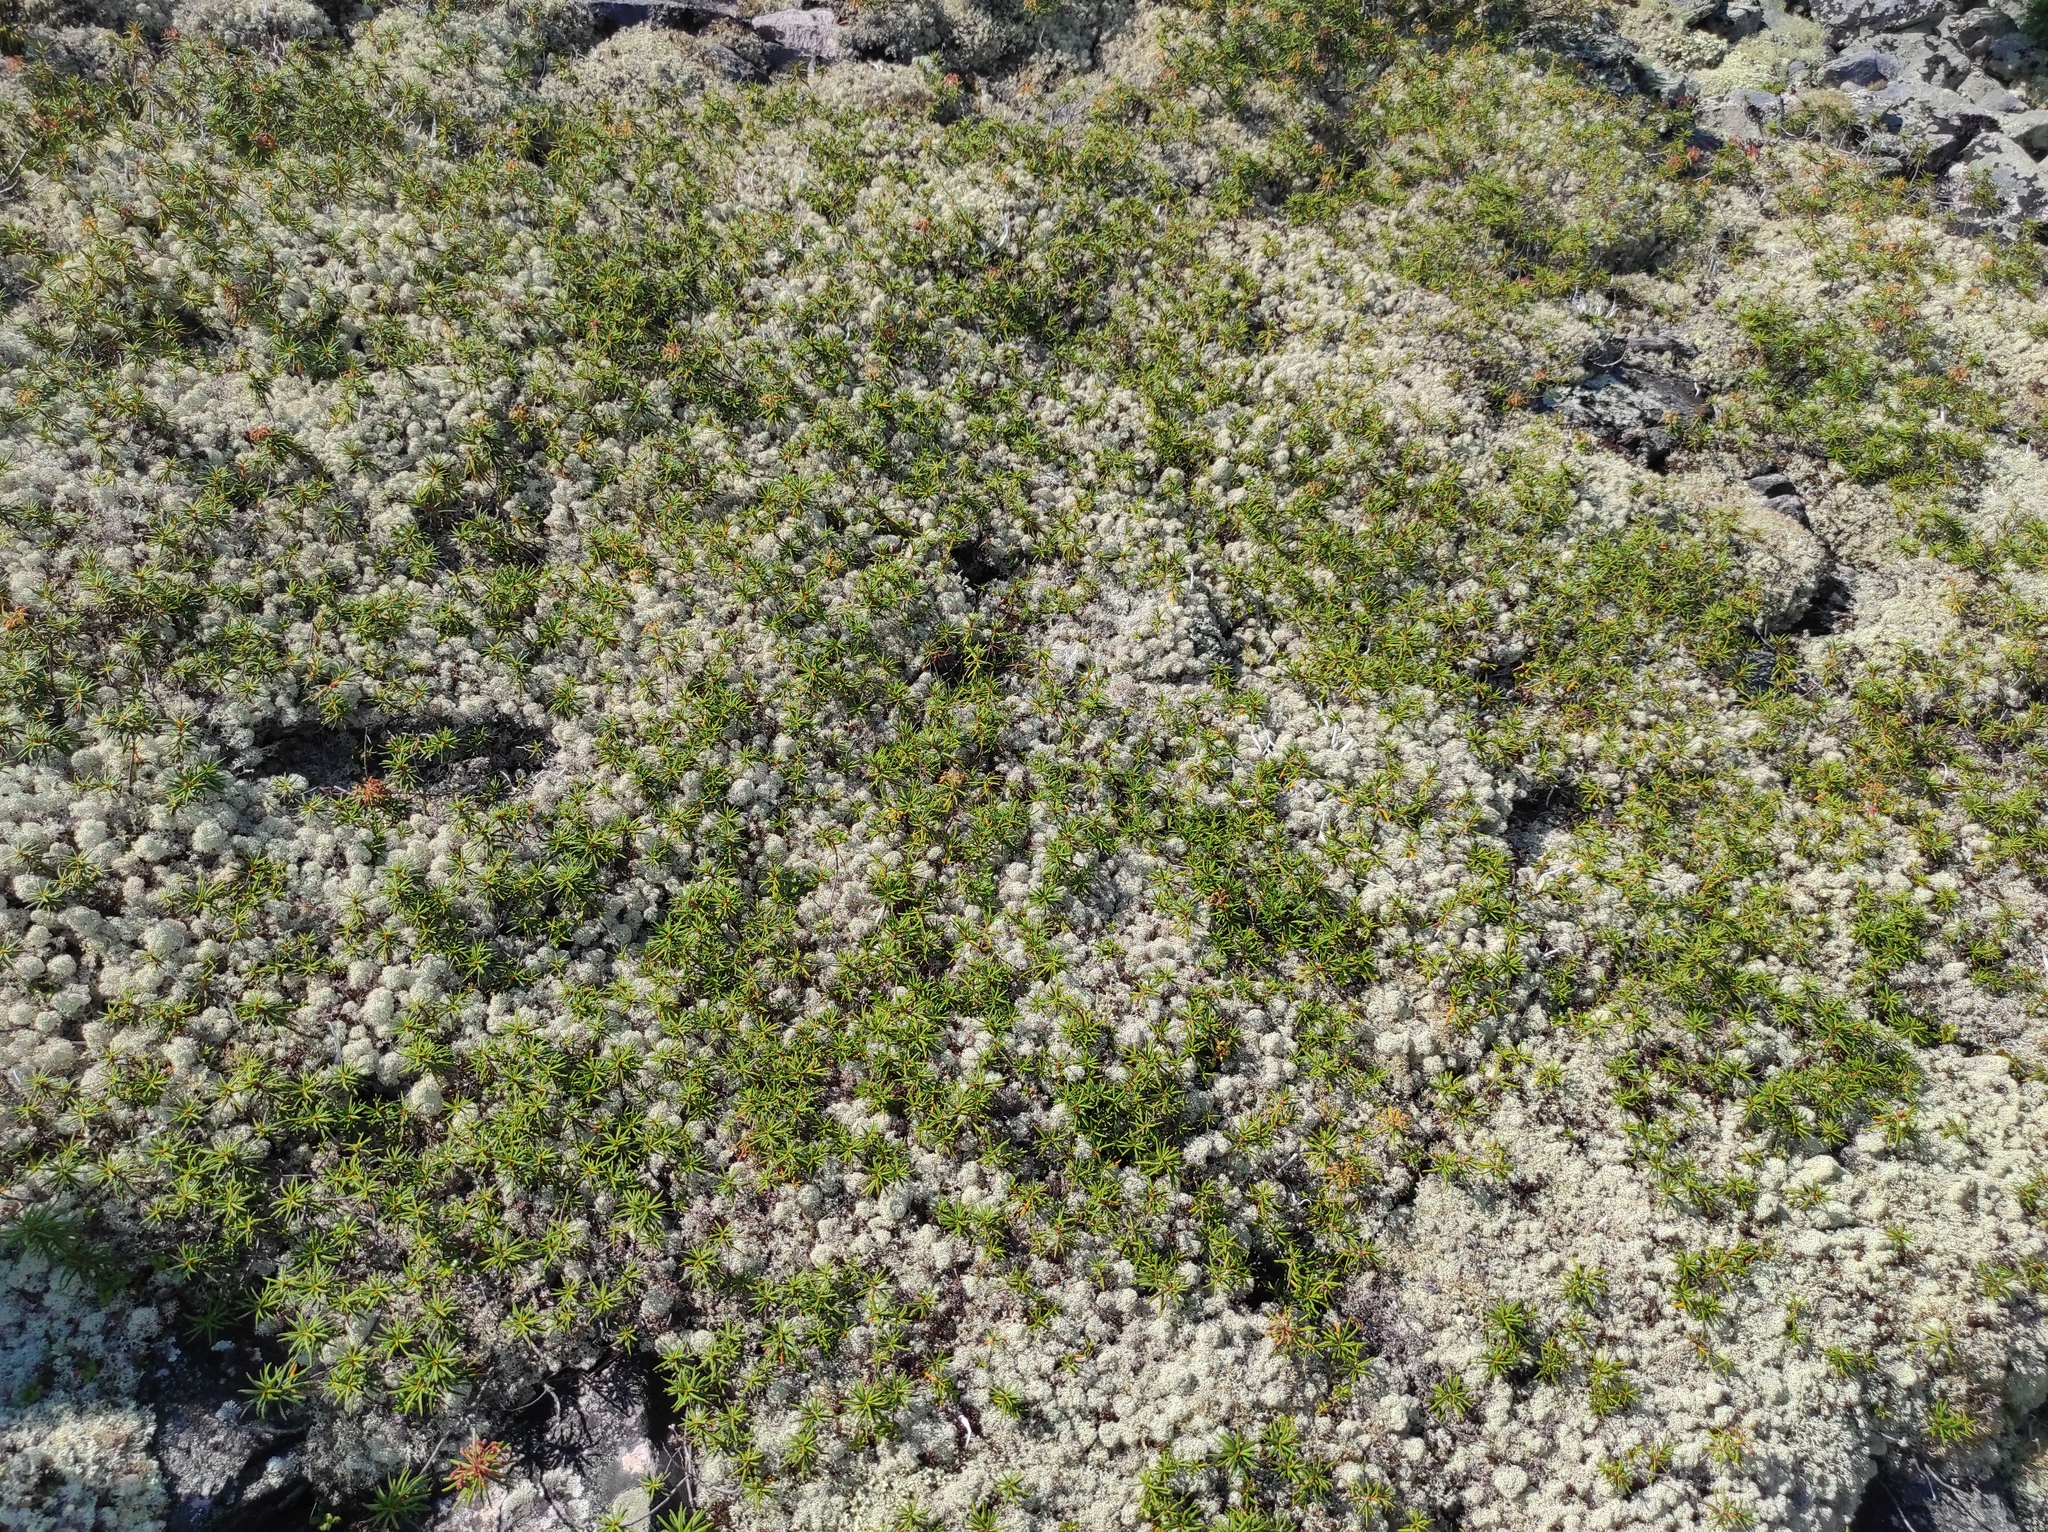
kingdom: Plantae
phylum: Tracheophyta
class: Magnoliopsida
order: Ericales
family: Ericaceae
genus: Rhododendron
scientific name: Rhododendron tomentosum
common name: Marsh labrador tea
